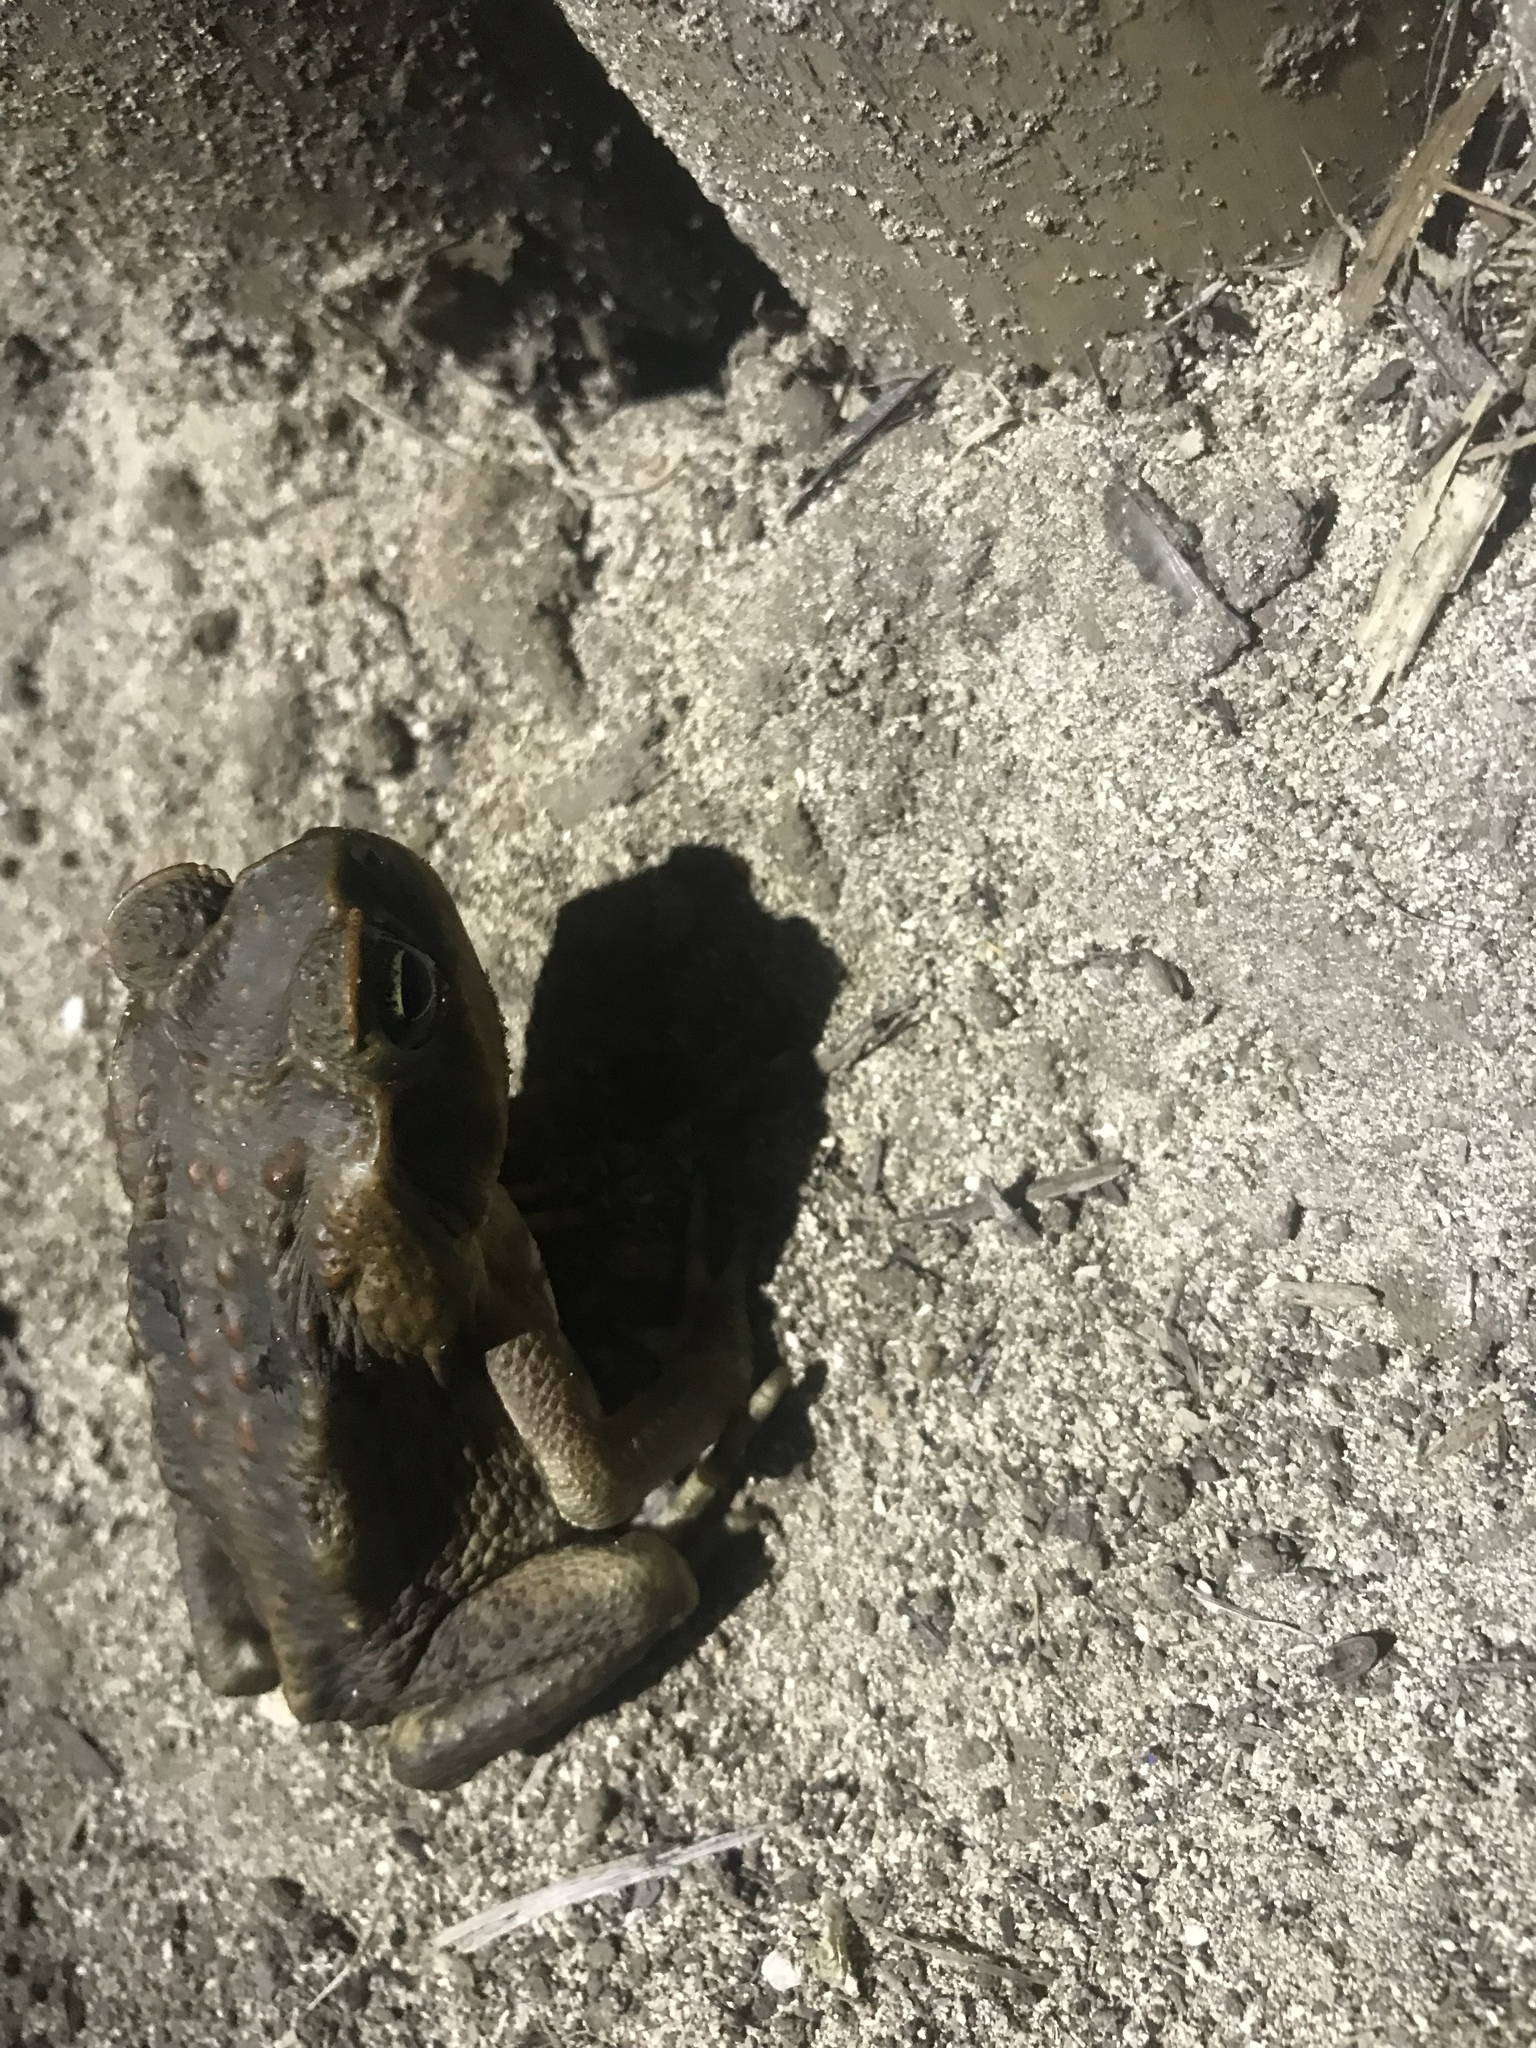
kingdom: Animalia
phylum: Chordata
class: Amphibia
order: Anura
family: Bufonidae
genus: Rhinella
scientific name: Rhinella marina
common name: Cane toad
